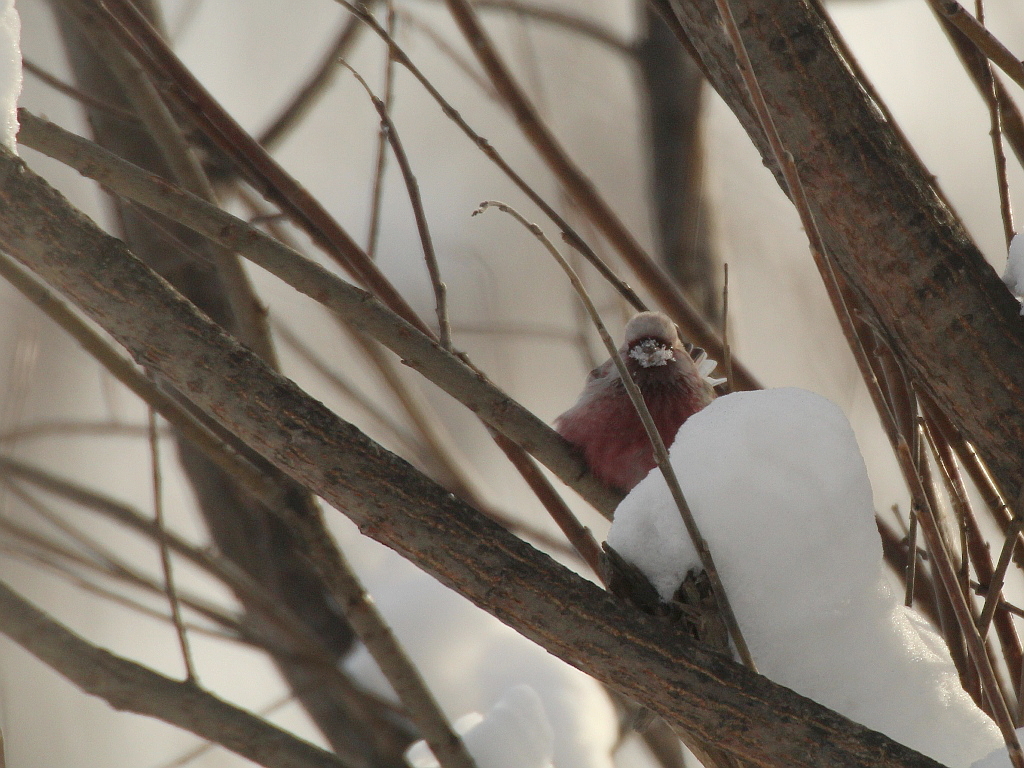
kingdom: Animalia
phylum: Chordata
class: Aves
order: Passeriformes
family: Fringillidae
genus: Carpodacus
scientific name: Carpodacus sibiricus
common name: Long-tailed rosefinch
